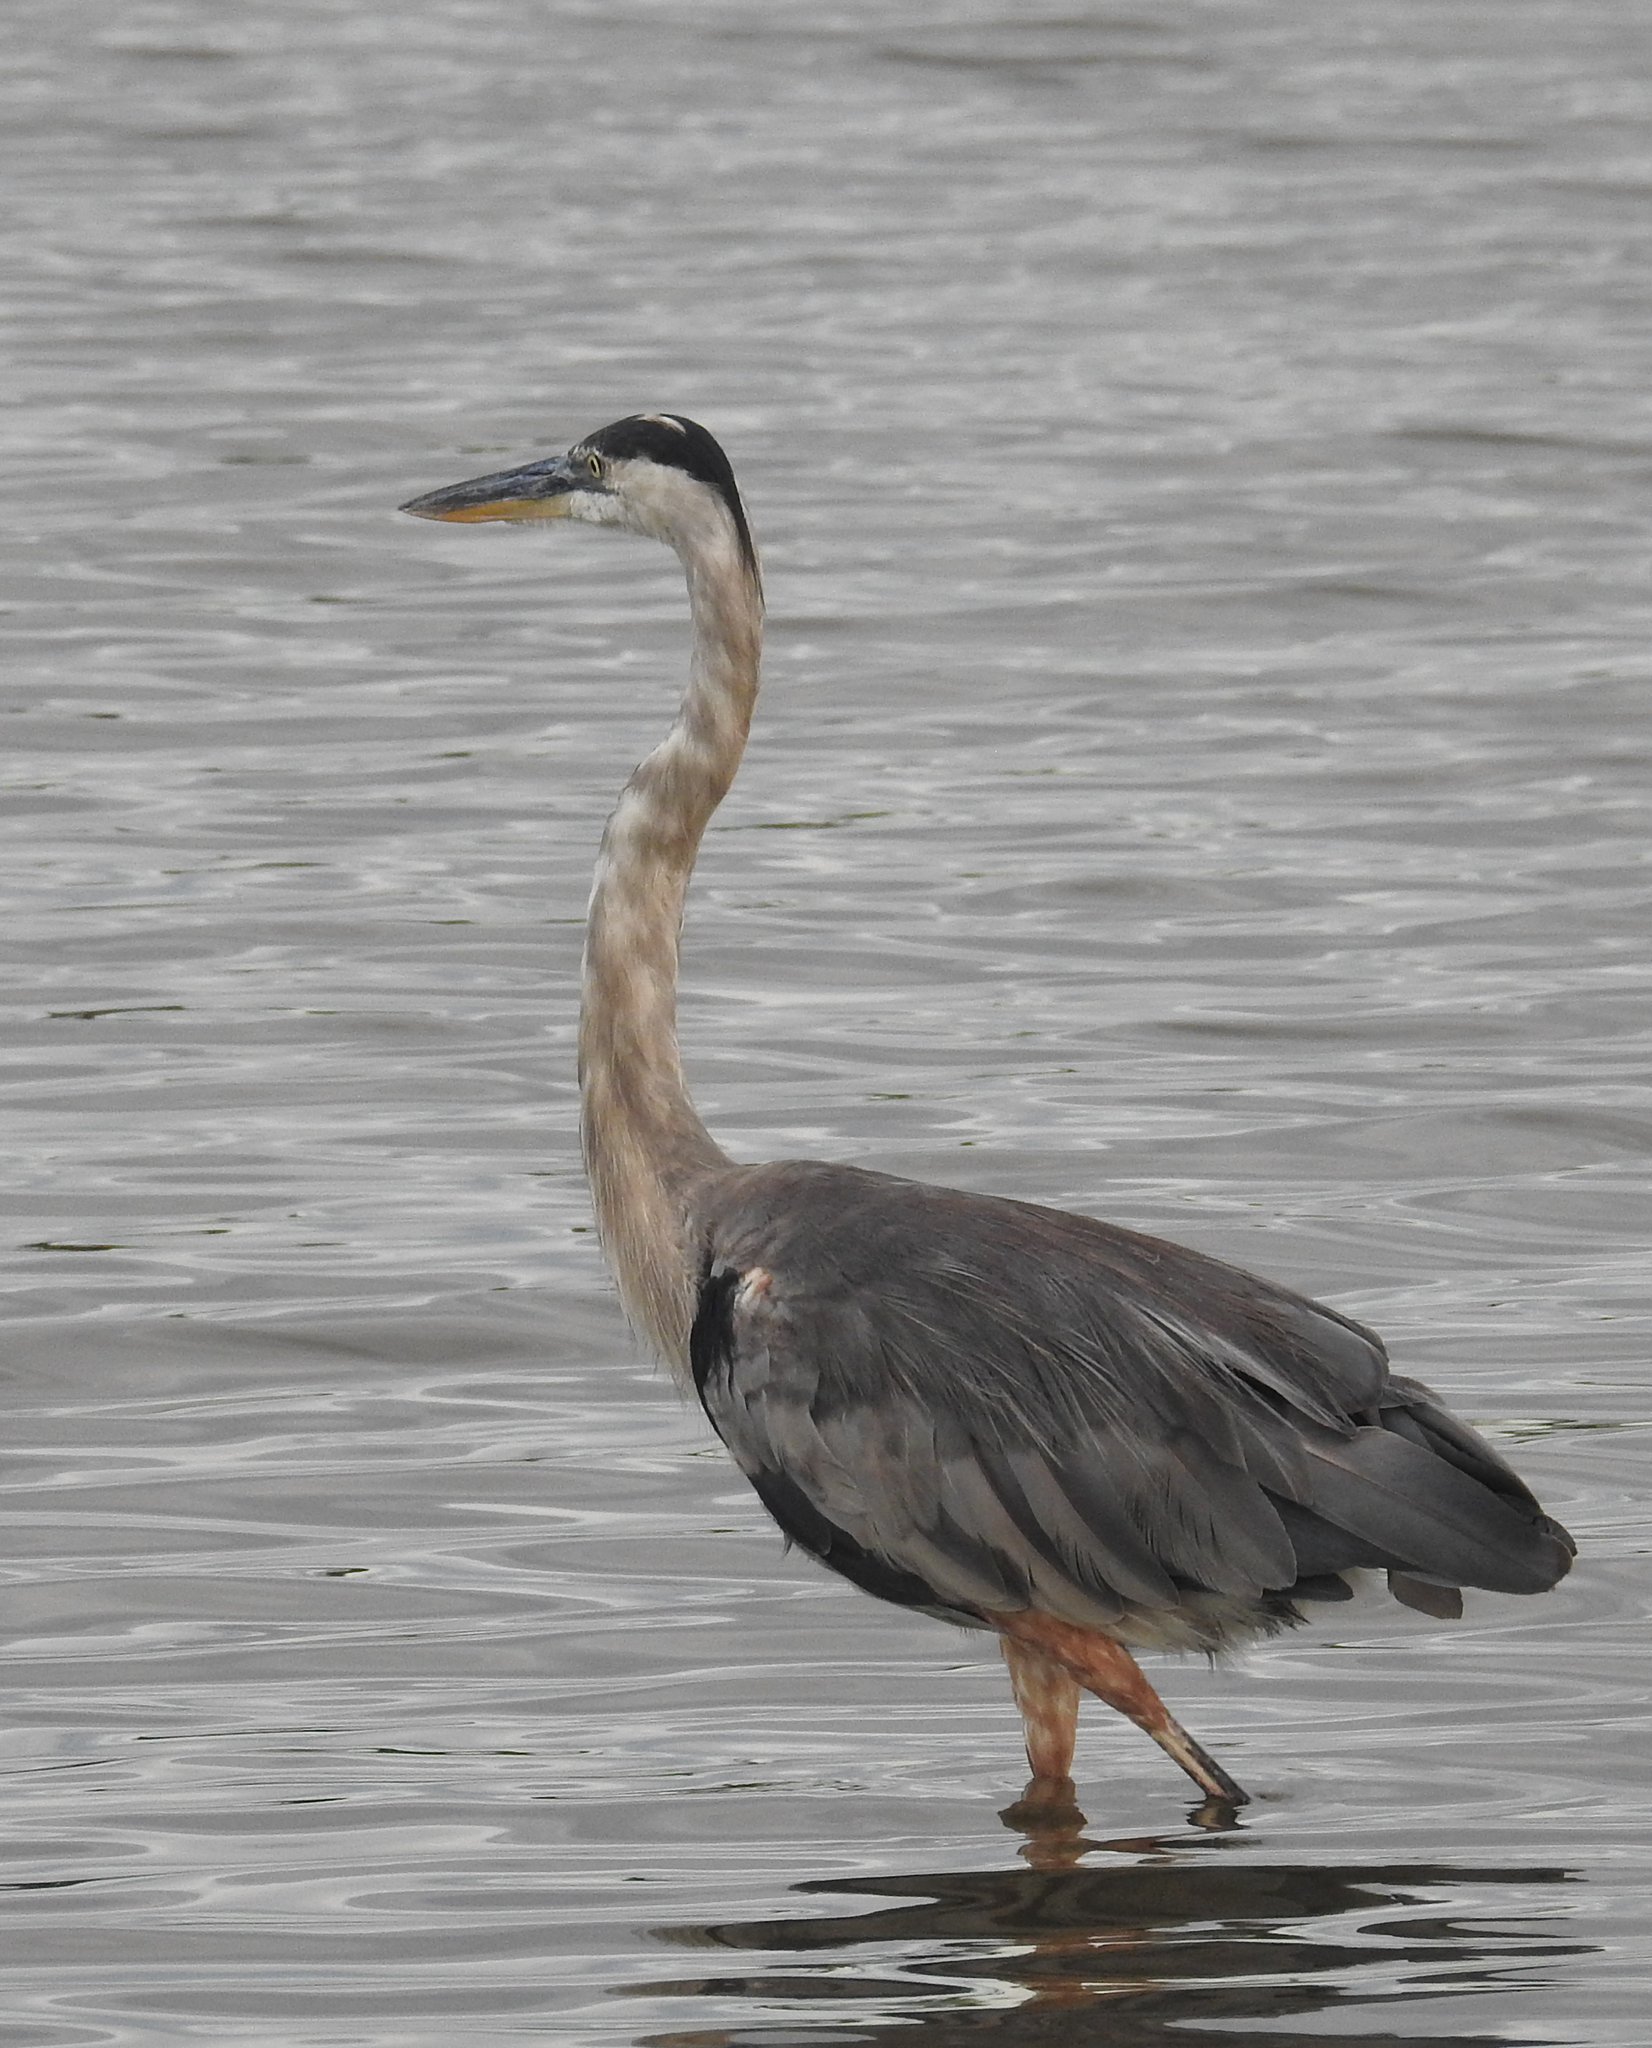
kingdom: Animalia
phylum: Chordata
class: Aves
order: Pelecaniformes
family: Ardeidae
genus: Ardea
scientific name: Ardea herodias
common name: Great blue heron
